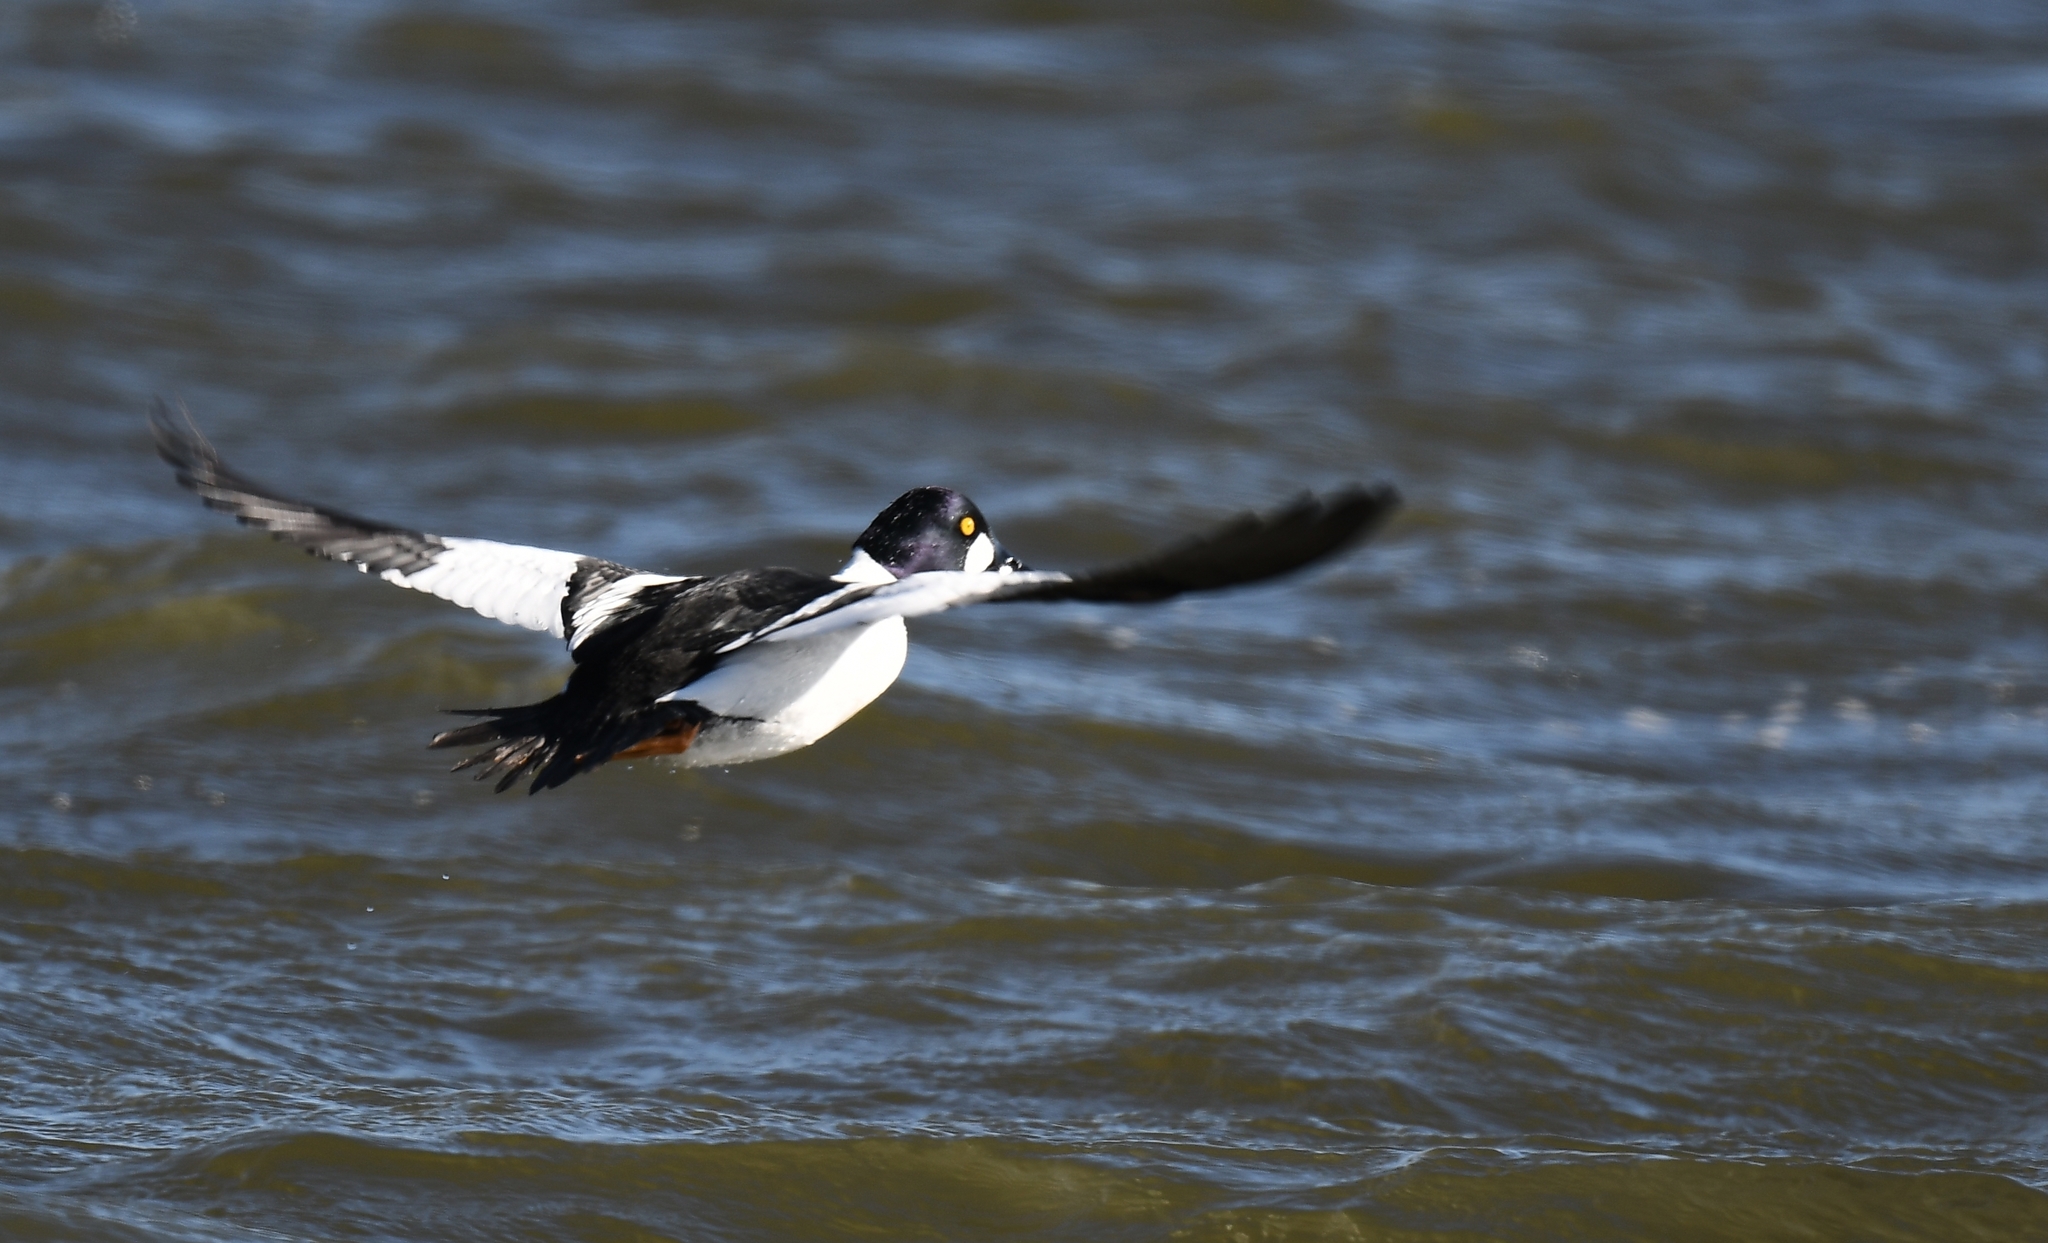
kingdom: Animalia
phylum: Chordata
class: Aves
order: Anseriformes
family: Anatidae
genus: Bucephala
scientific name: Bucephala clangula
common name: Common goldeneye
